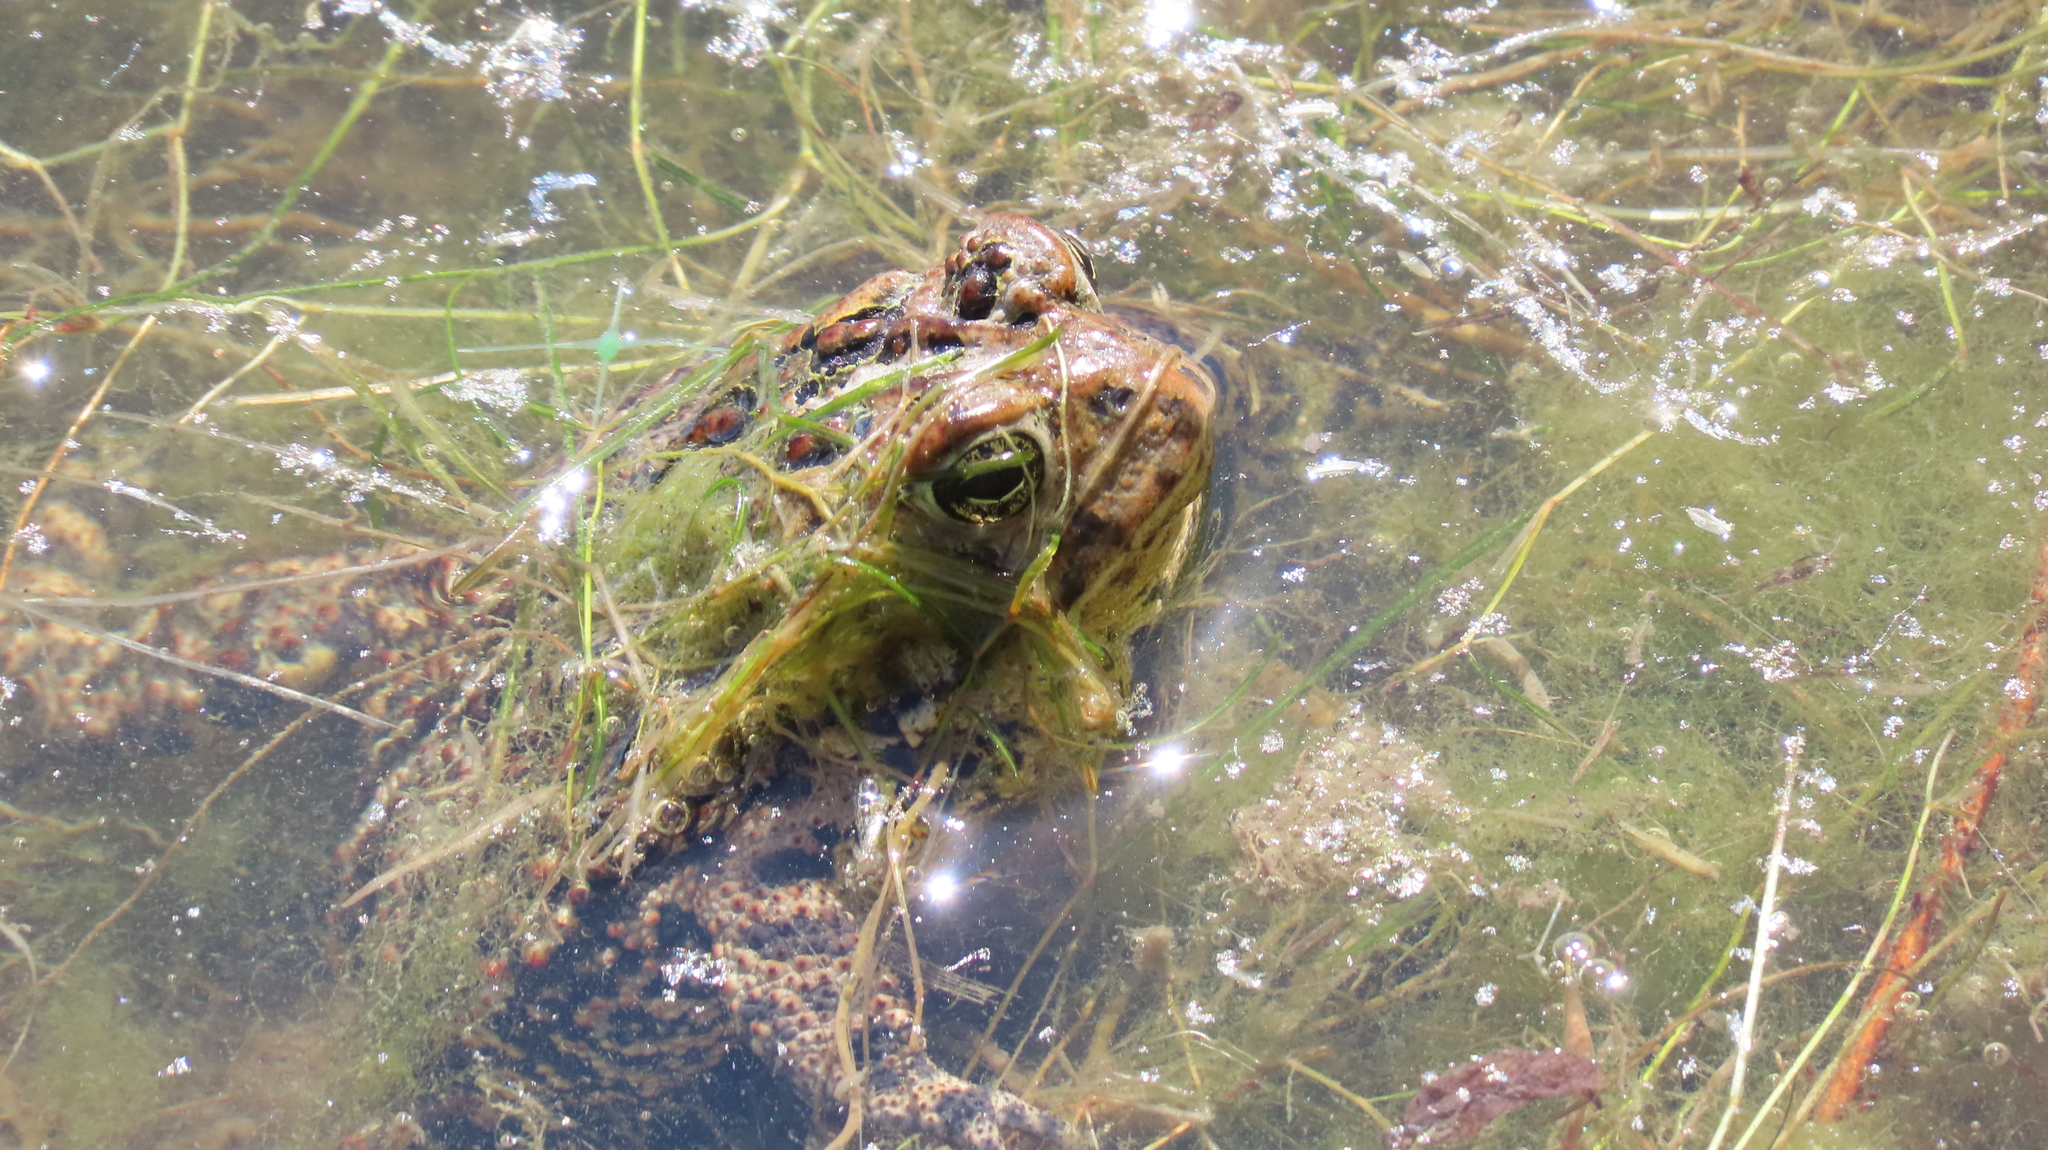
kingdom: Animalia
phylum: Chordata
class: Amphibia
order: Anura
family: Bufonidae
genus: Anaxyrus
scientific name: Anaxyrus americanus
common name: American toad
